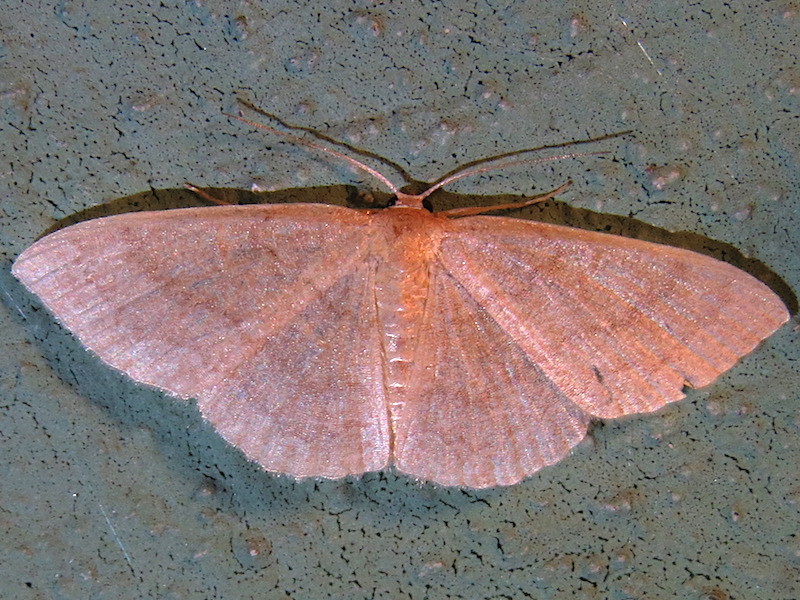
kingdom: Animalia
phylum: Arthropoda
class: Insecta
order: Lepidoptera
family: Geometridae
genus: Pleuroprucha
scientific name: Pleuroprucha insulsaria
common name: Common tan wave
